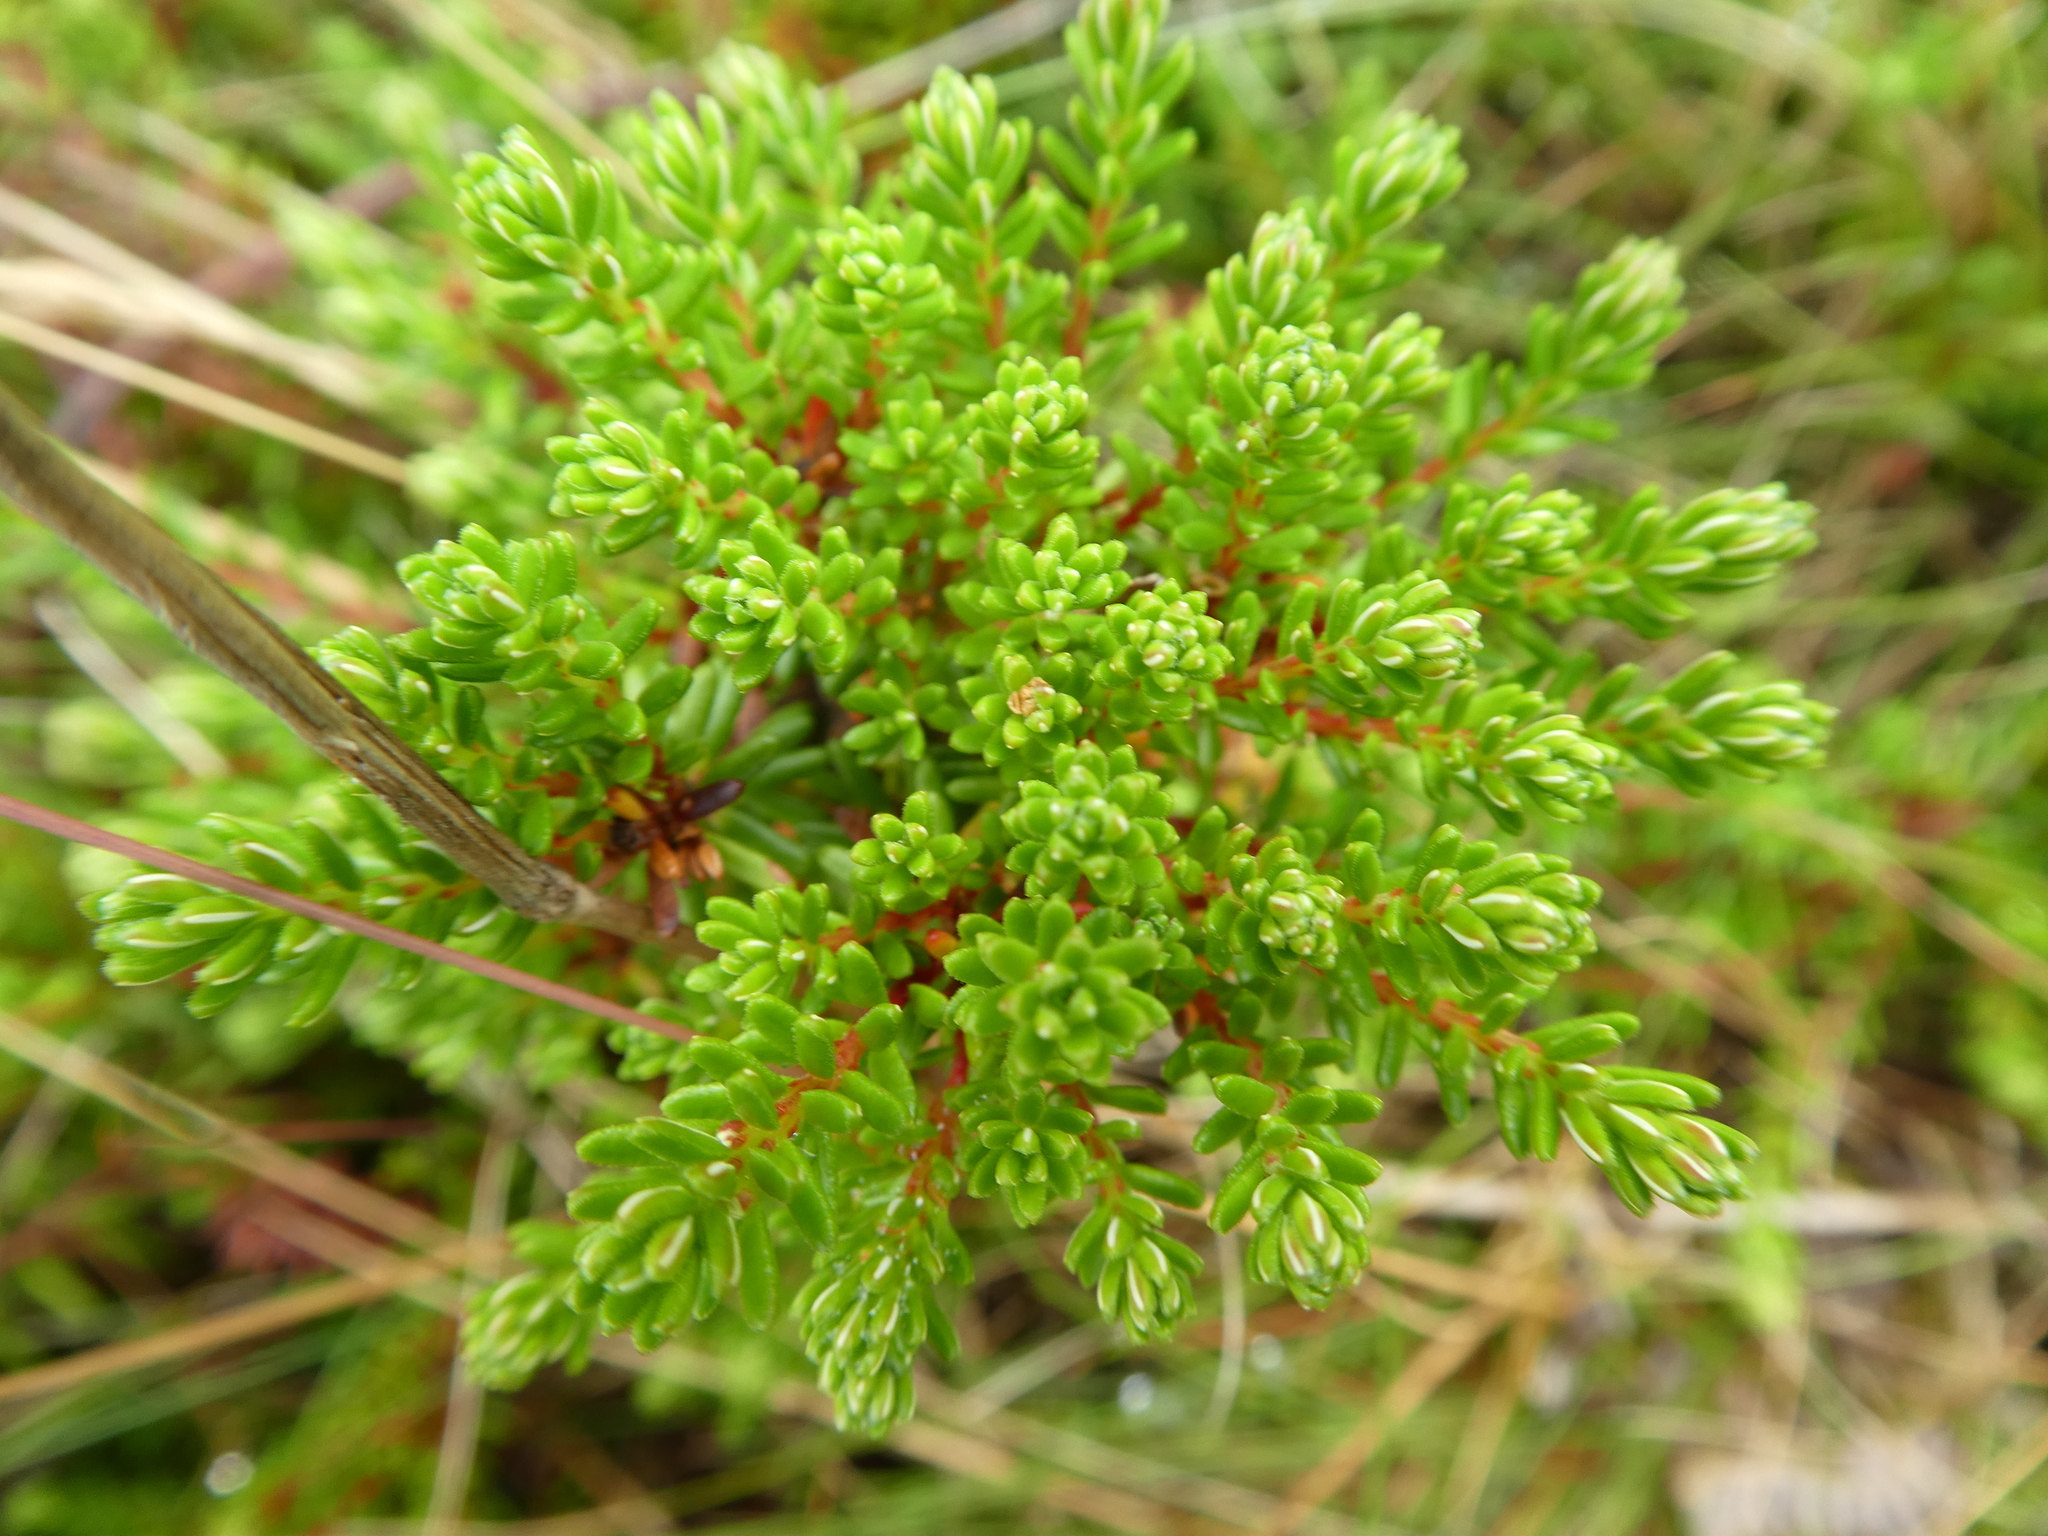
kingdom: Plantae
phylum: Tracheophyta
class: Magnoliopsida
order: Ericales
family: Ericaceae
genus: Empetrum
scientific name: Empetrum nigrum
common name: Black crowberry
